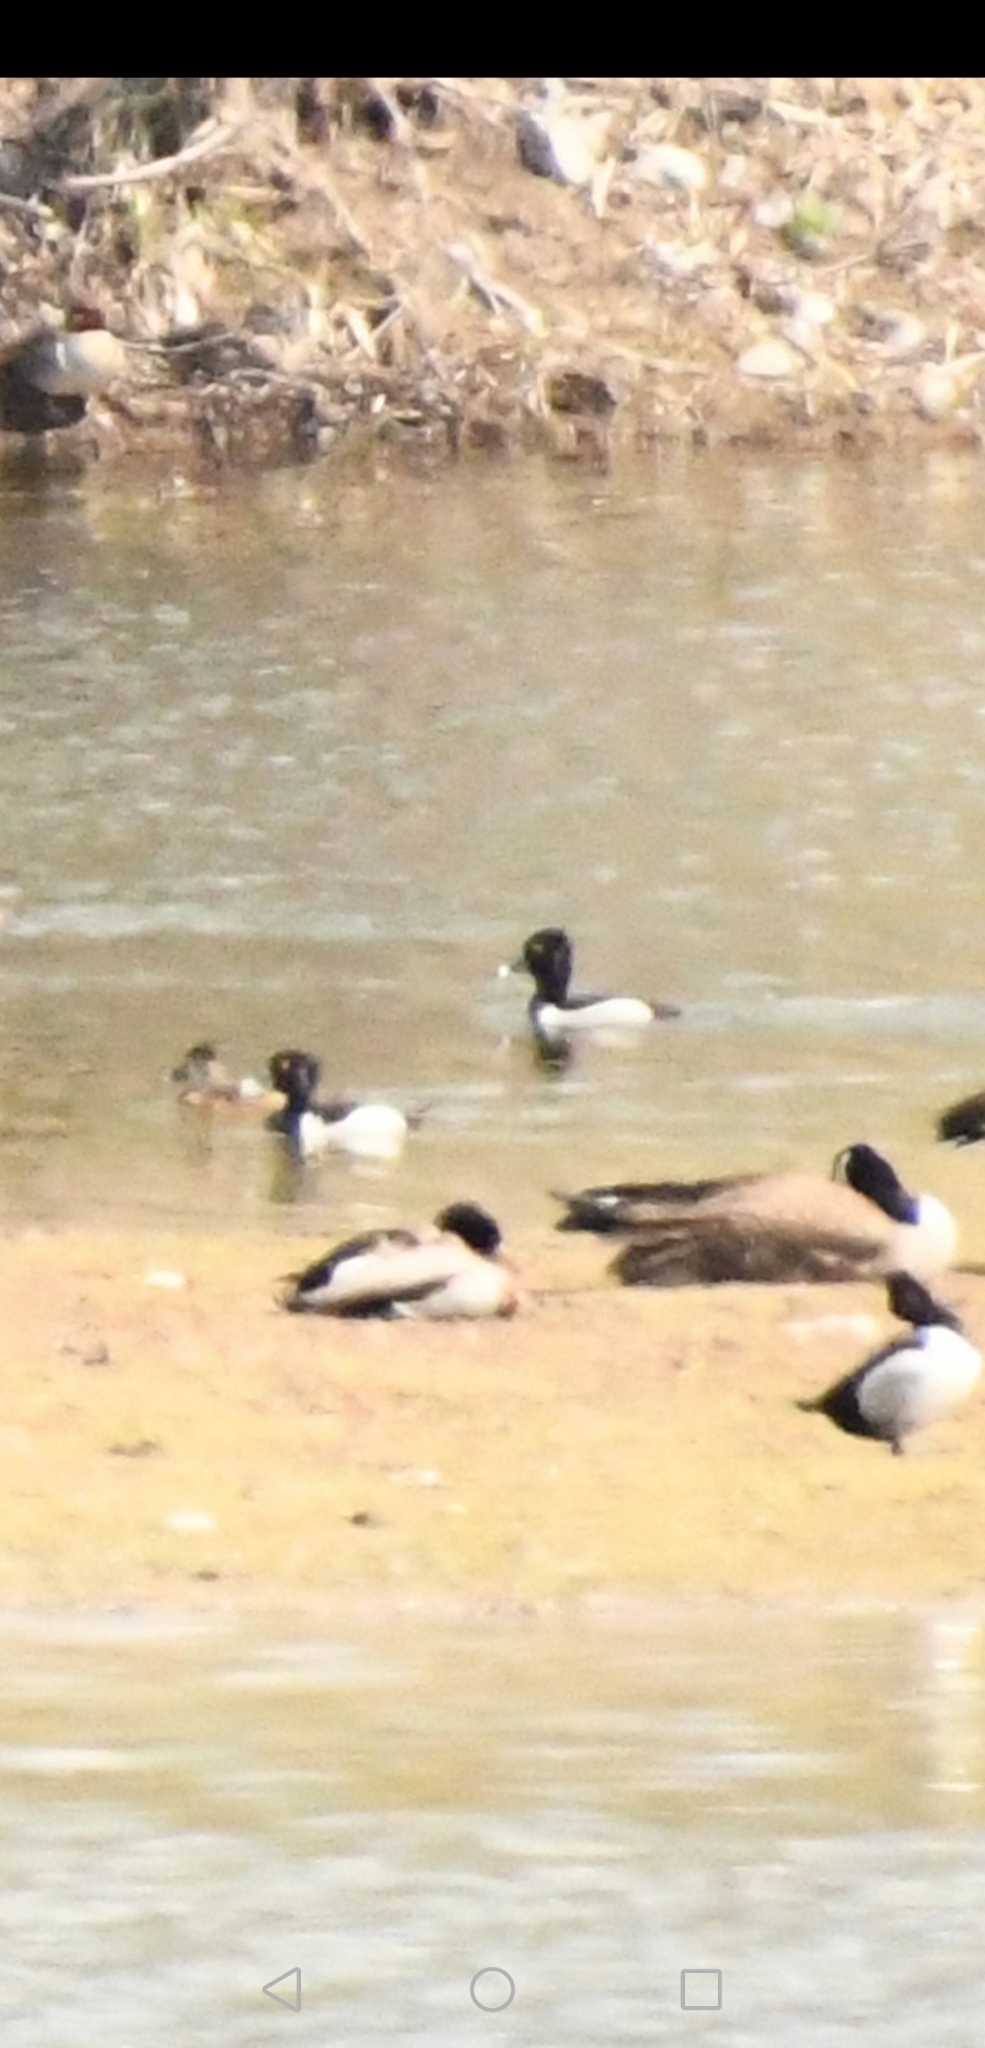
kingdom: Animalia
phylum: Chordata
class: Aves
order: Anseriformes
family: Anatidae
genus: Aythya
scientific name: Aythya collaris
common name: Ring-necked duck
